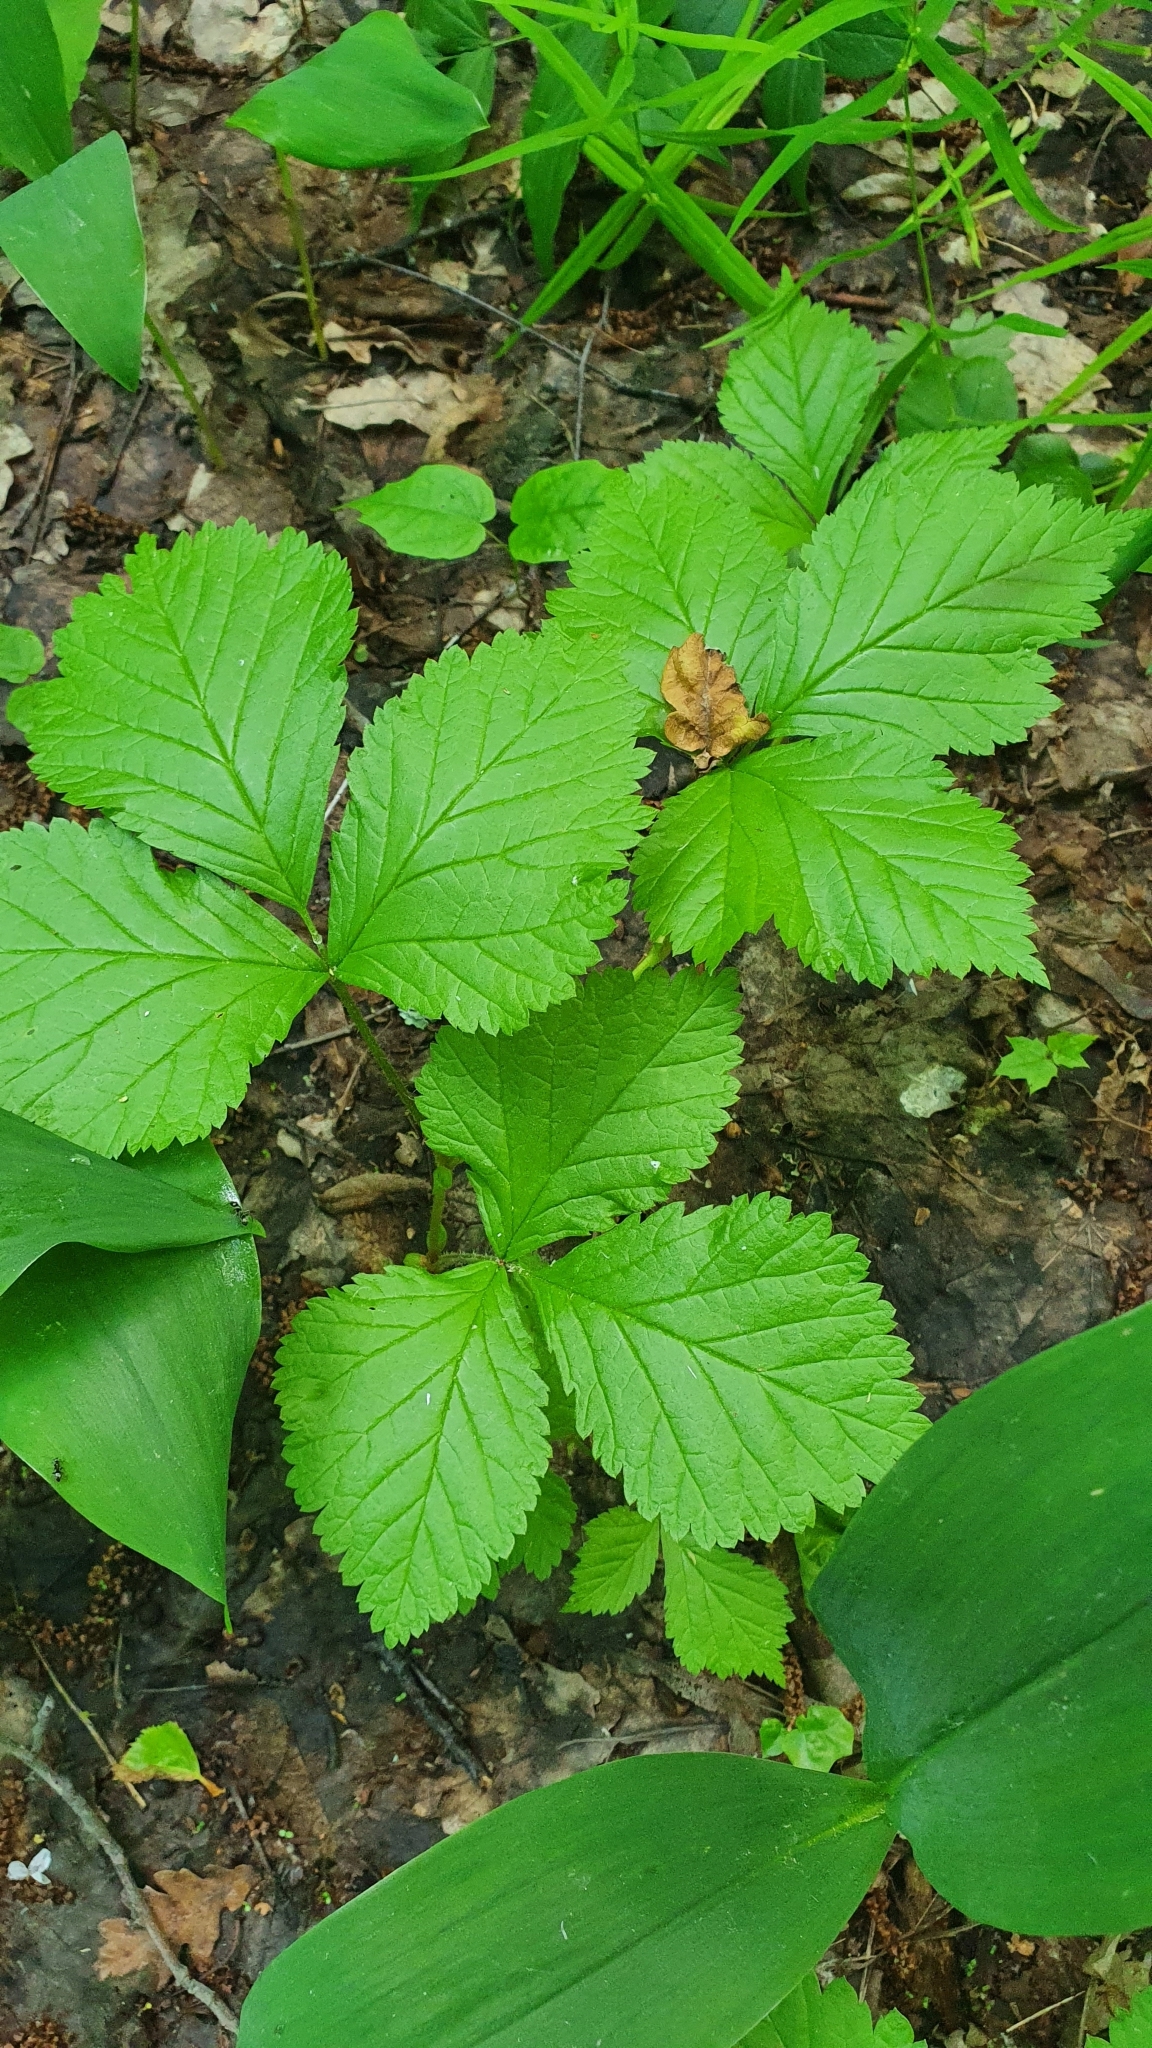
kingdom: Plantae
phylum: Tracheophyta
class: Magnoliopsida
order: Rosales
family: Rosaceae
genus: Rubus
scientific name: Rubus saxatilis
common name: Stone bramble
